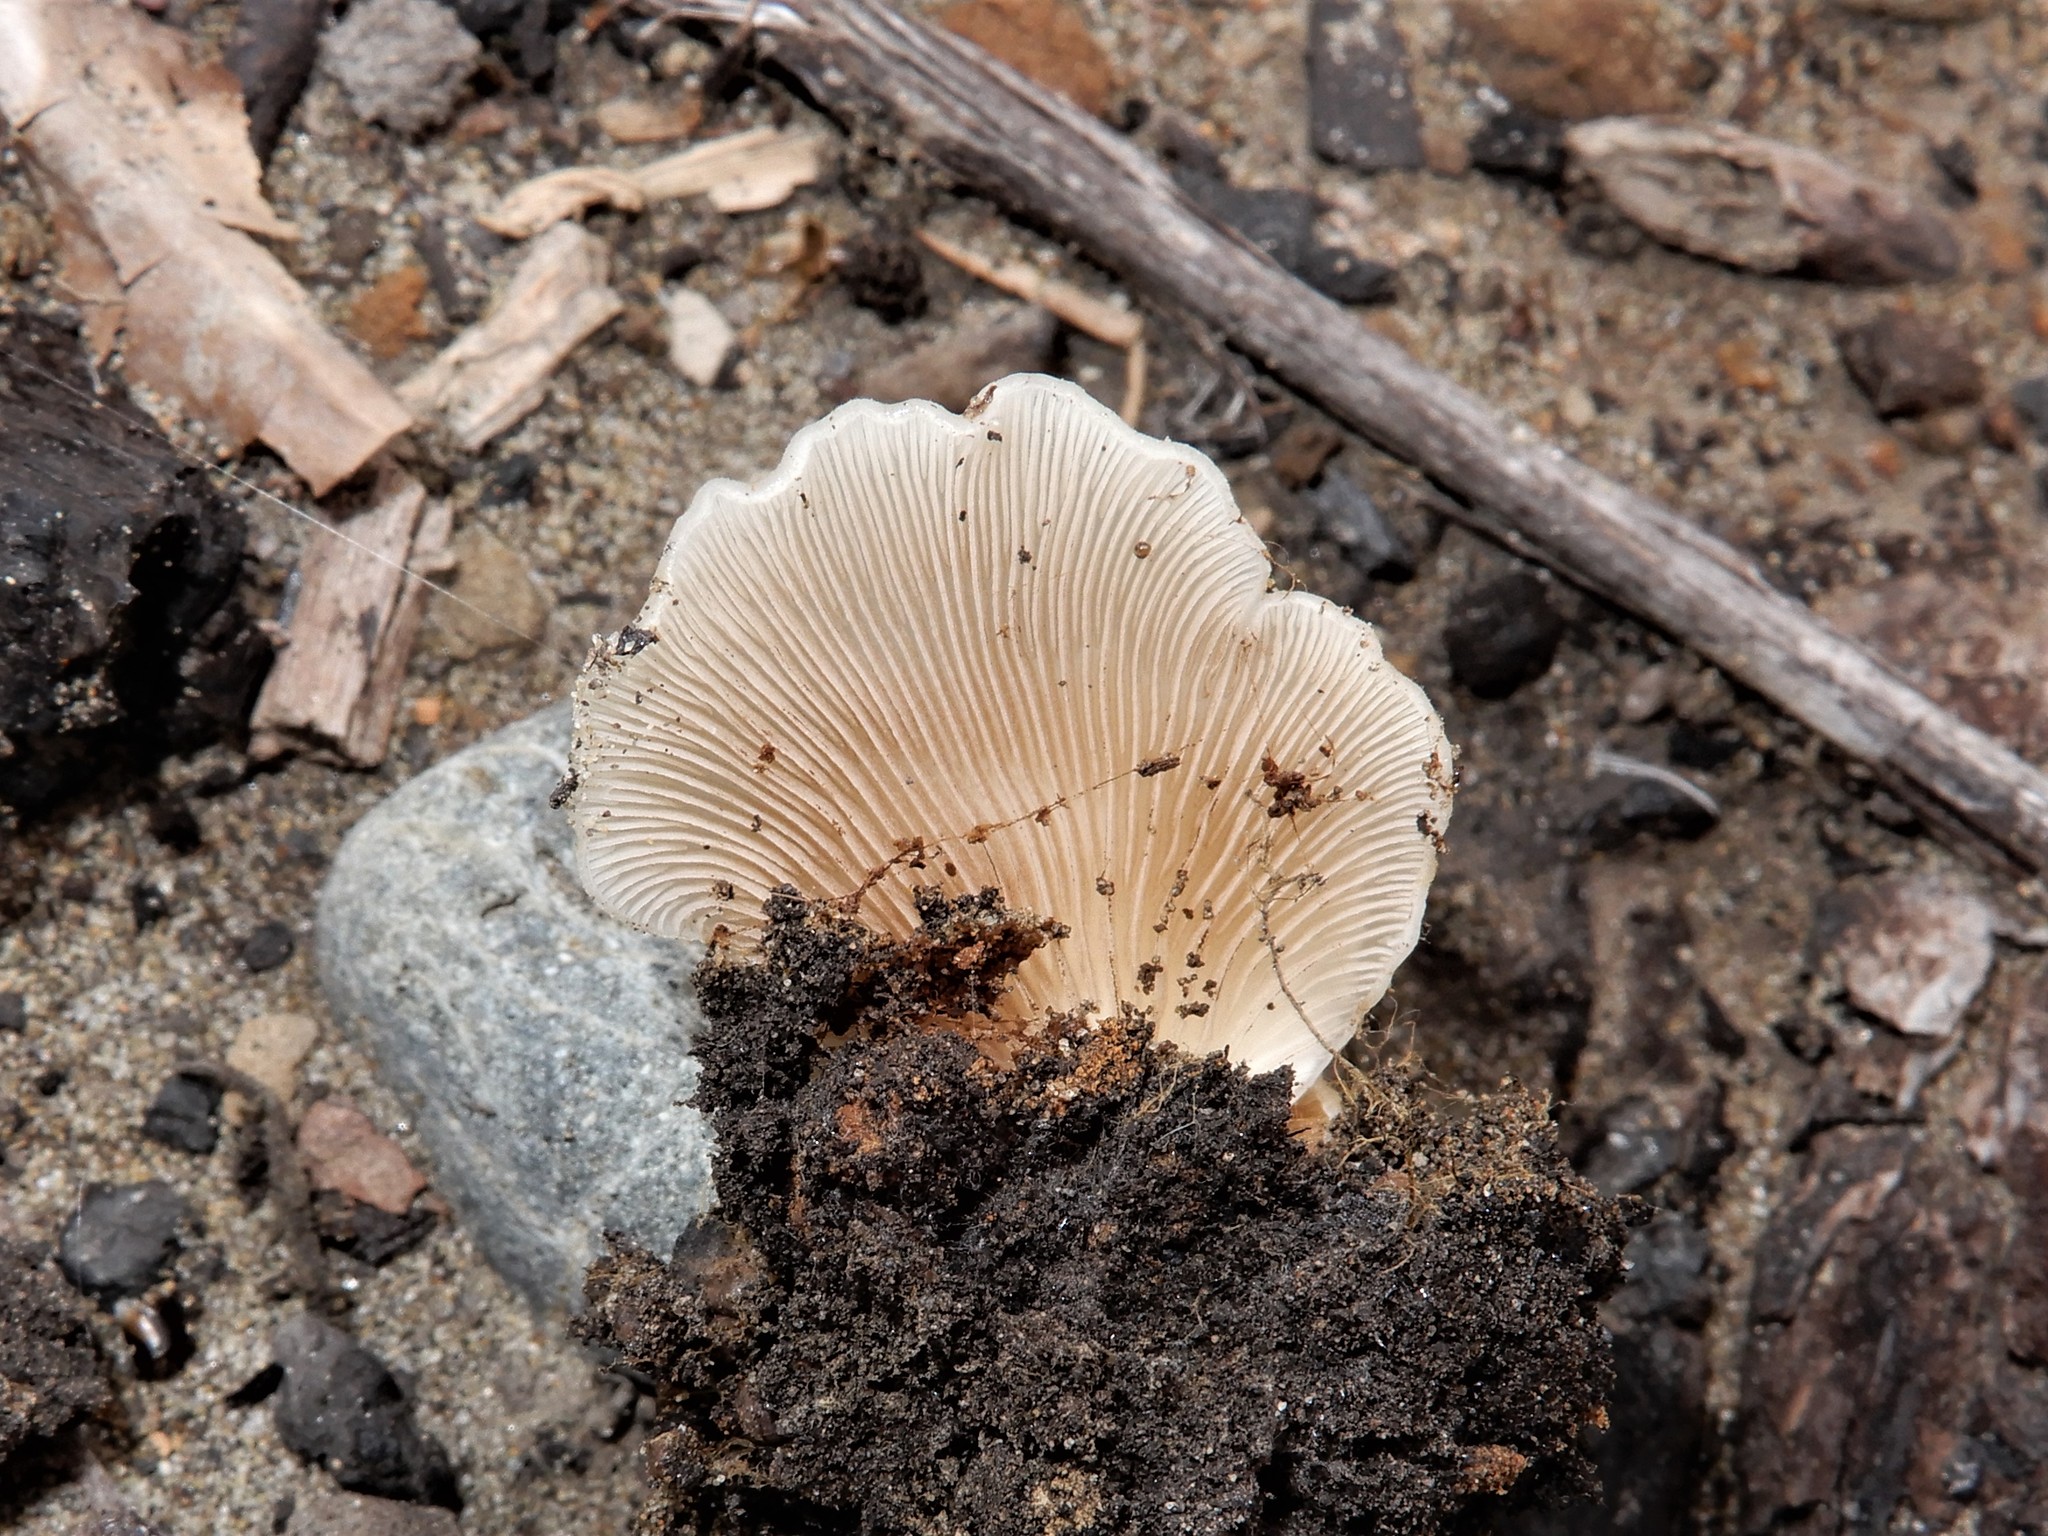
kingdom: Fungi
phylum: Basidiomycota
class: Agaricomycetes
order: Agaricales
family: Crepidotaceae
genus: Crepidotus
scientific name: Crepidotus uber
